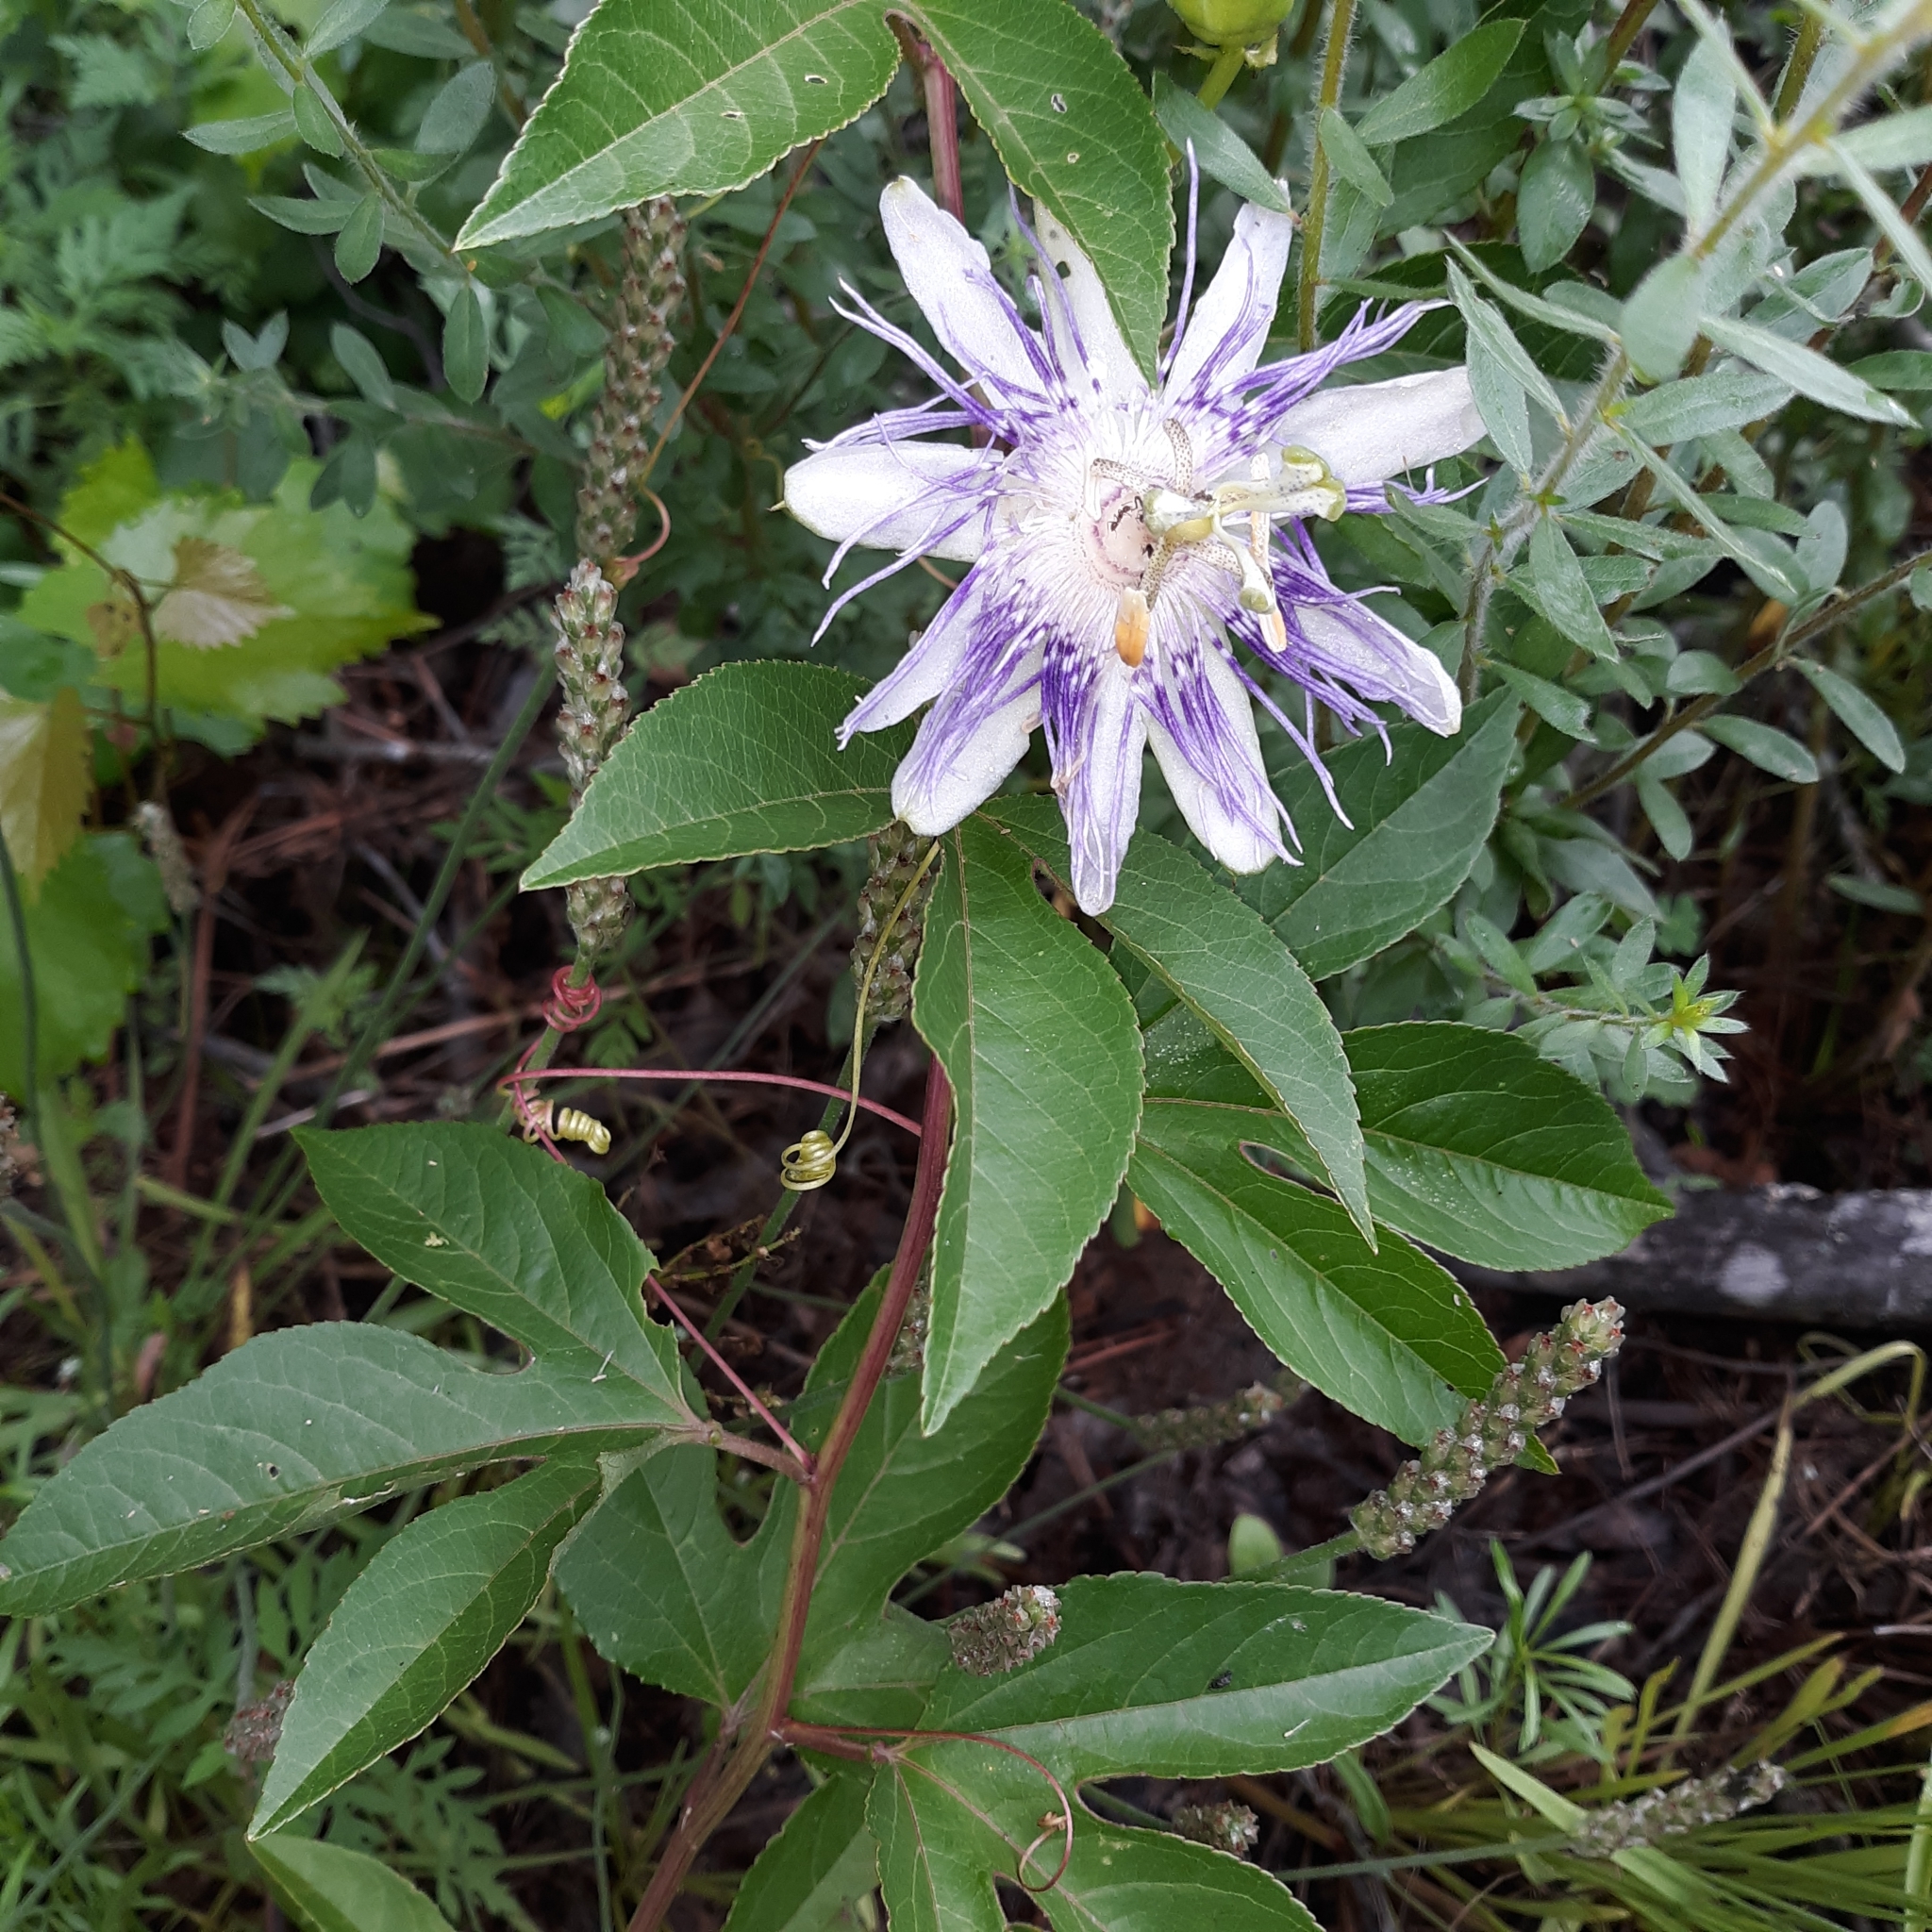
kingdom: Plantae
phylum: Tracheophyta
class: Magnoliopsida
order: Malpighiales
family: Passifloraceae
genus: Passiflora
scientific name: Passiflora incarnata
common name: Apricot-vine
